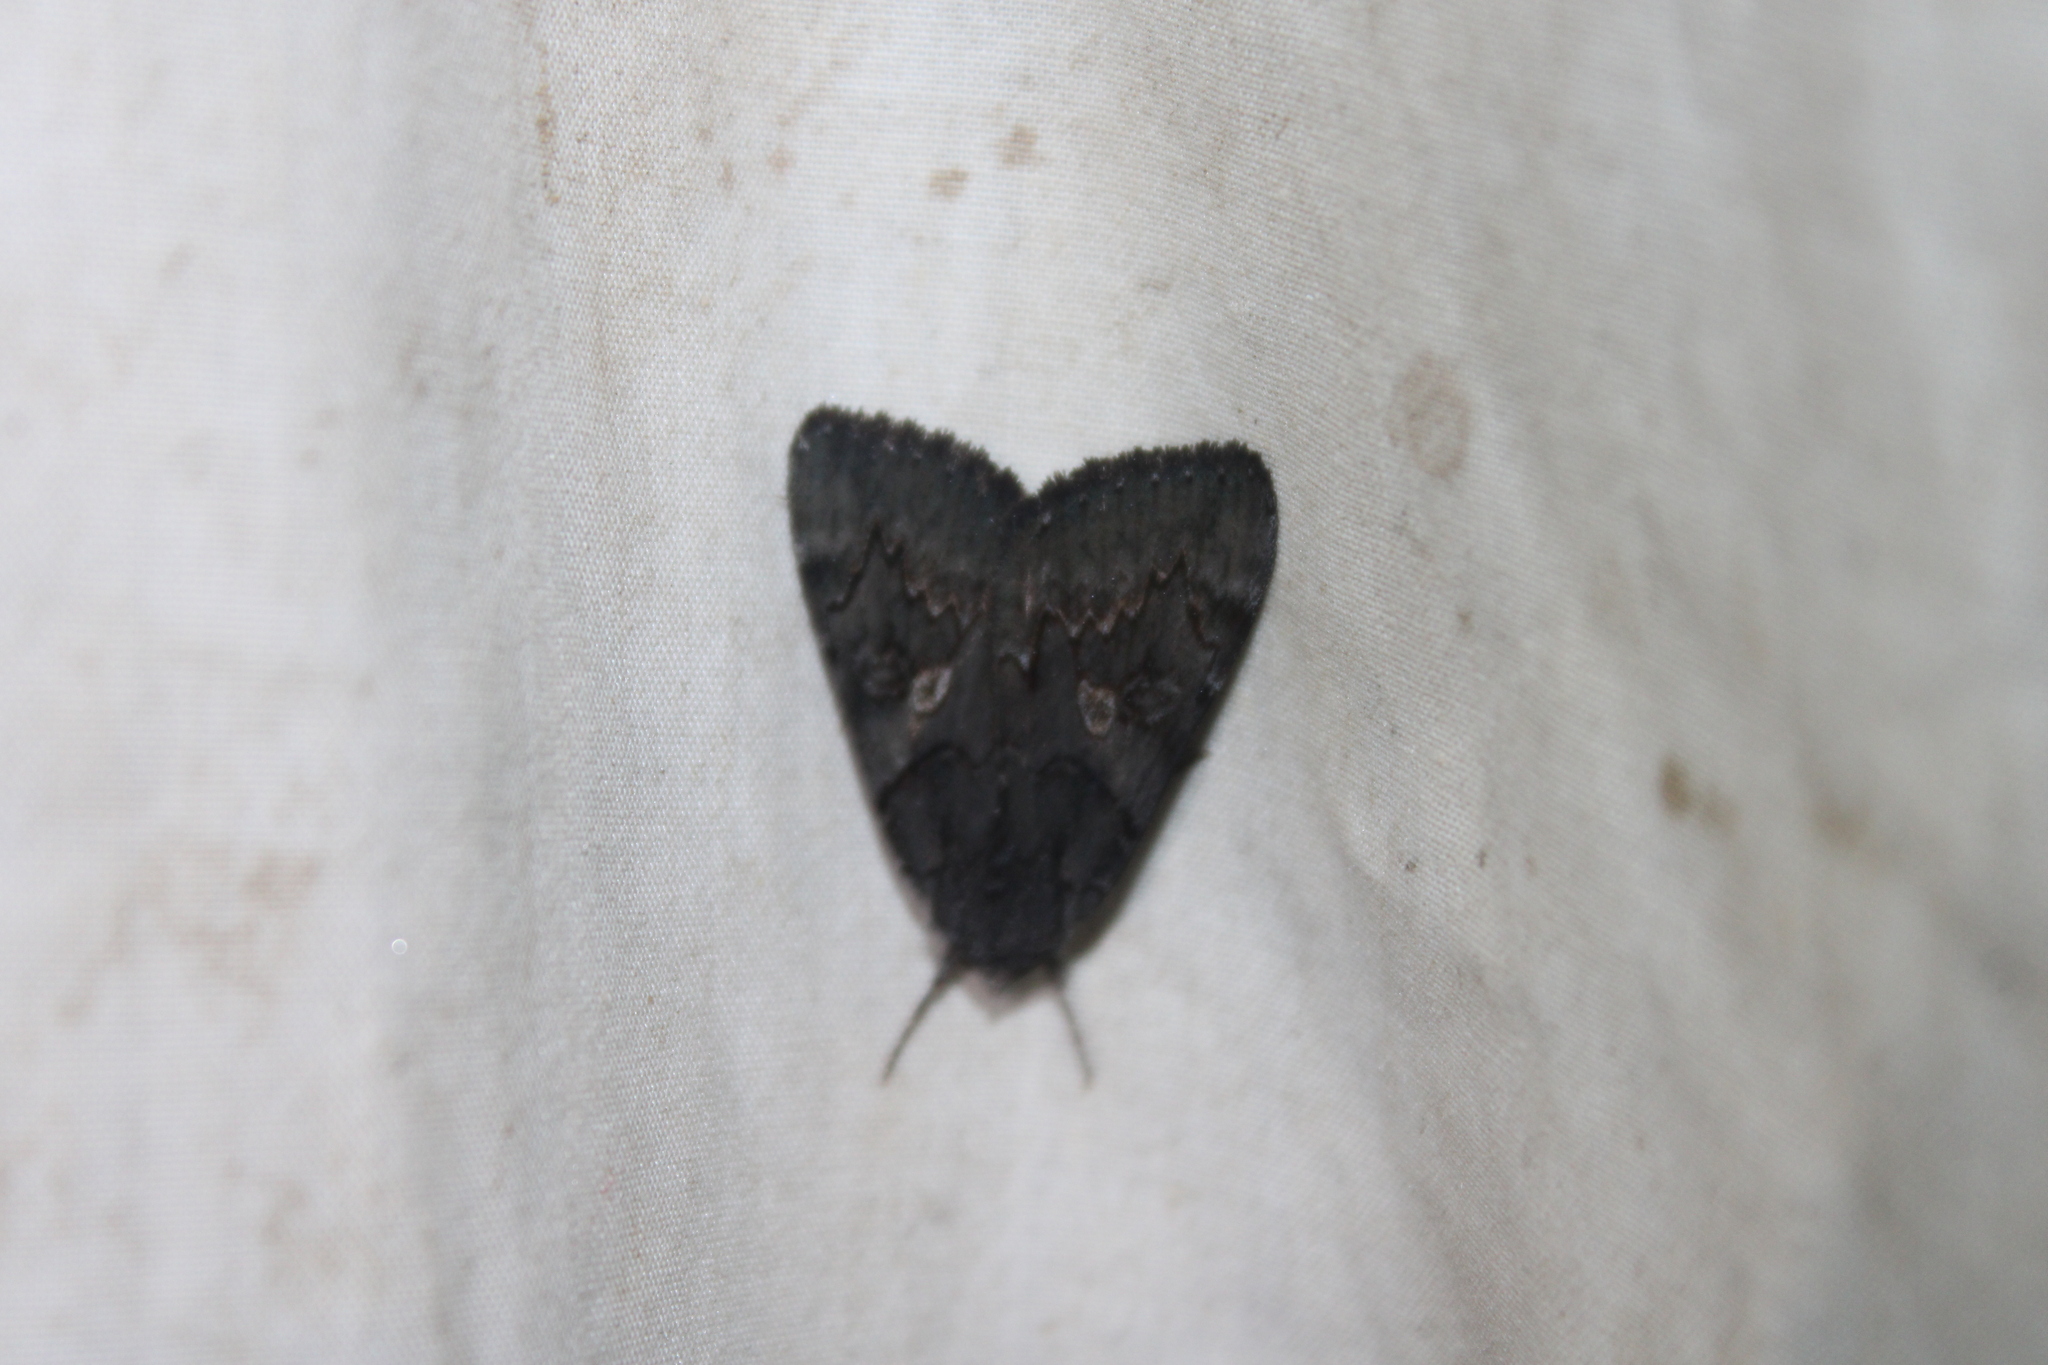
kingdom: Animalia
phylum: Arthropoda
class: Insecta
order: Lepidoptera
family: Erebidae
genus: Catocala
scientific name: Catocala antinympha
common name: Sweetfern underwing
